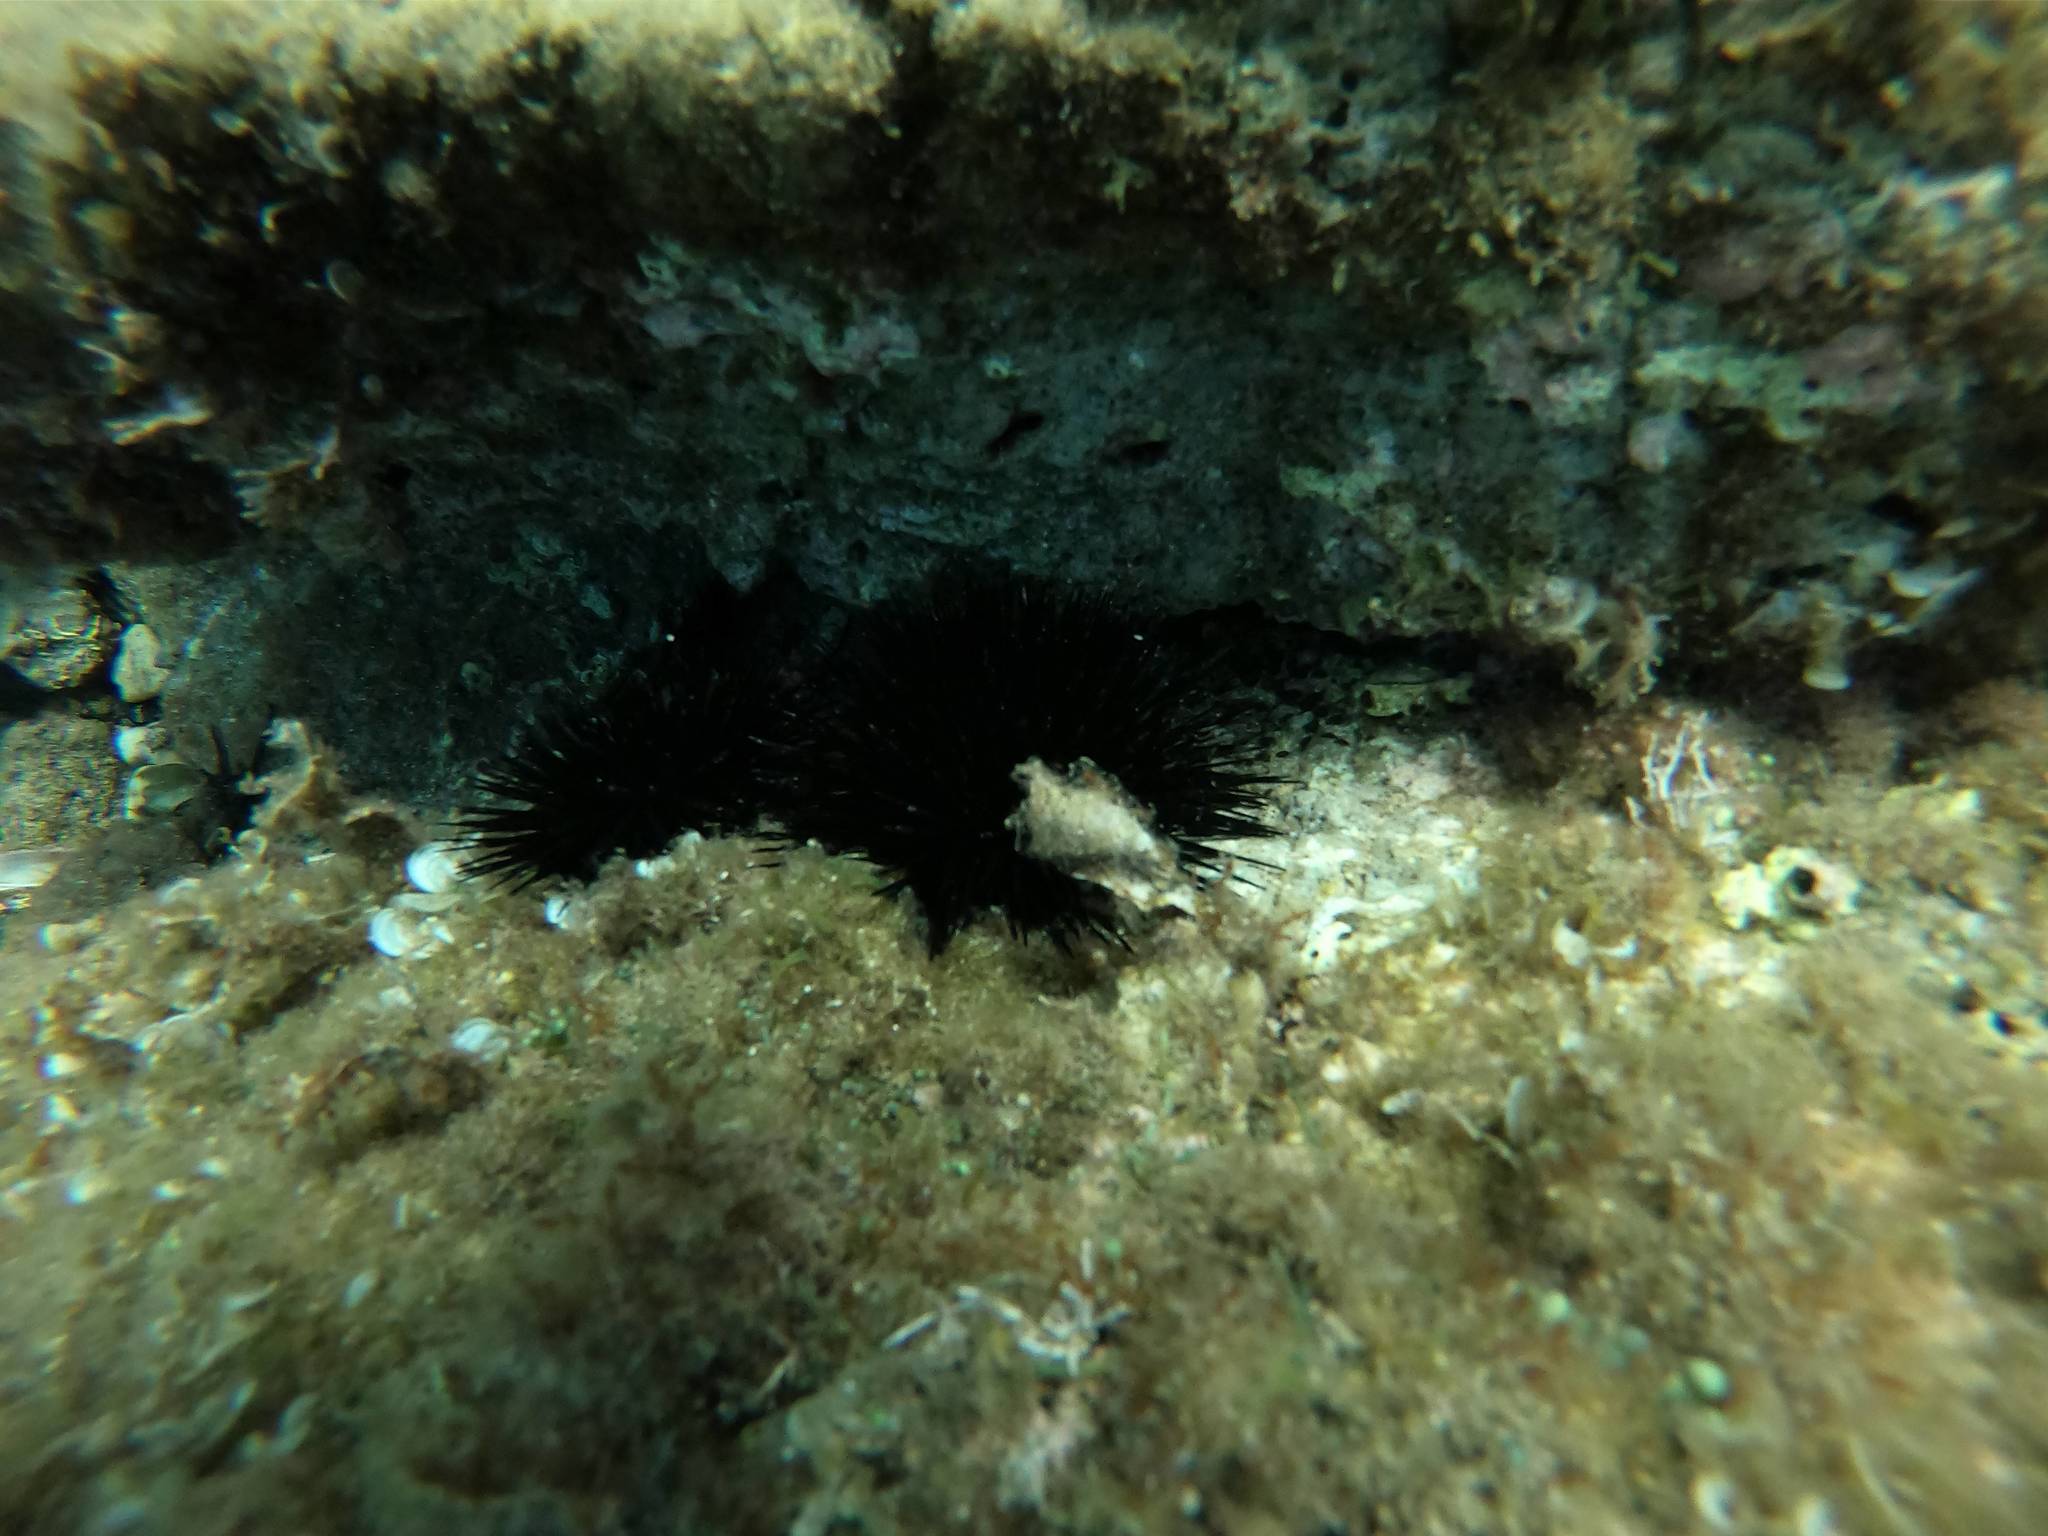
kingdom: Animalia
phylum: Echinodermata
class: Echinoidea
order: Arbacioida
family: Arbaciidae
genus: Arbacia
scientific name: Arbacia lixula
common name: Black sea urchin
